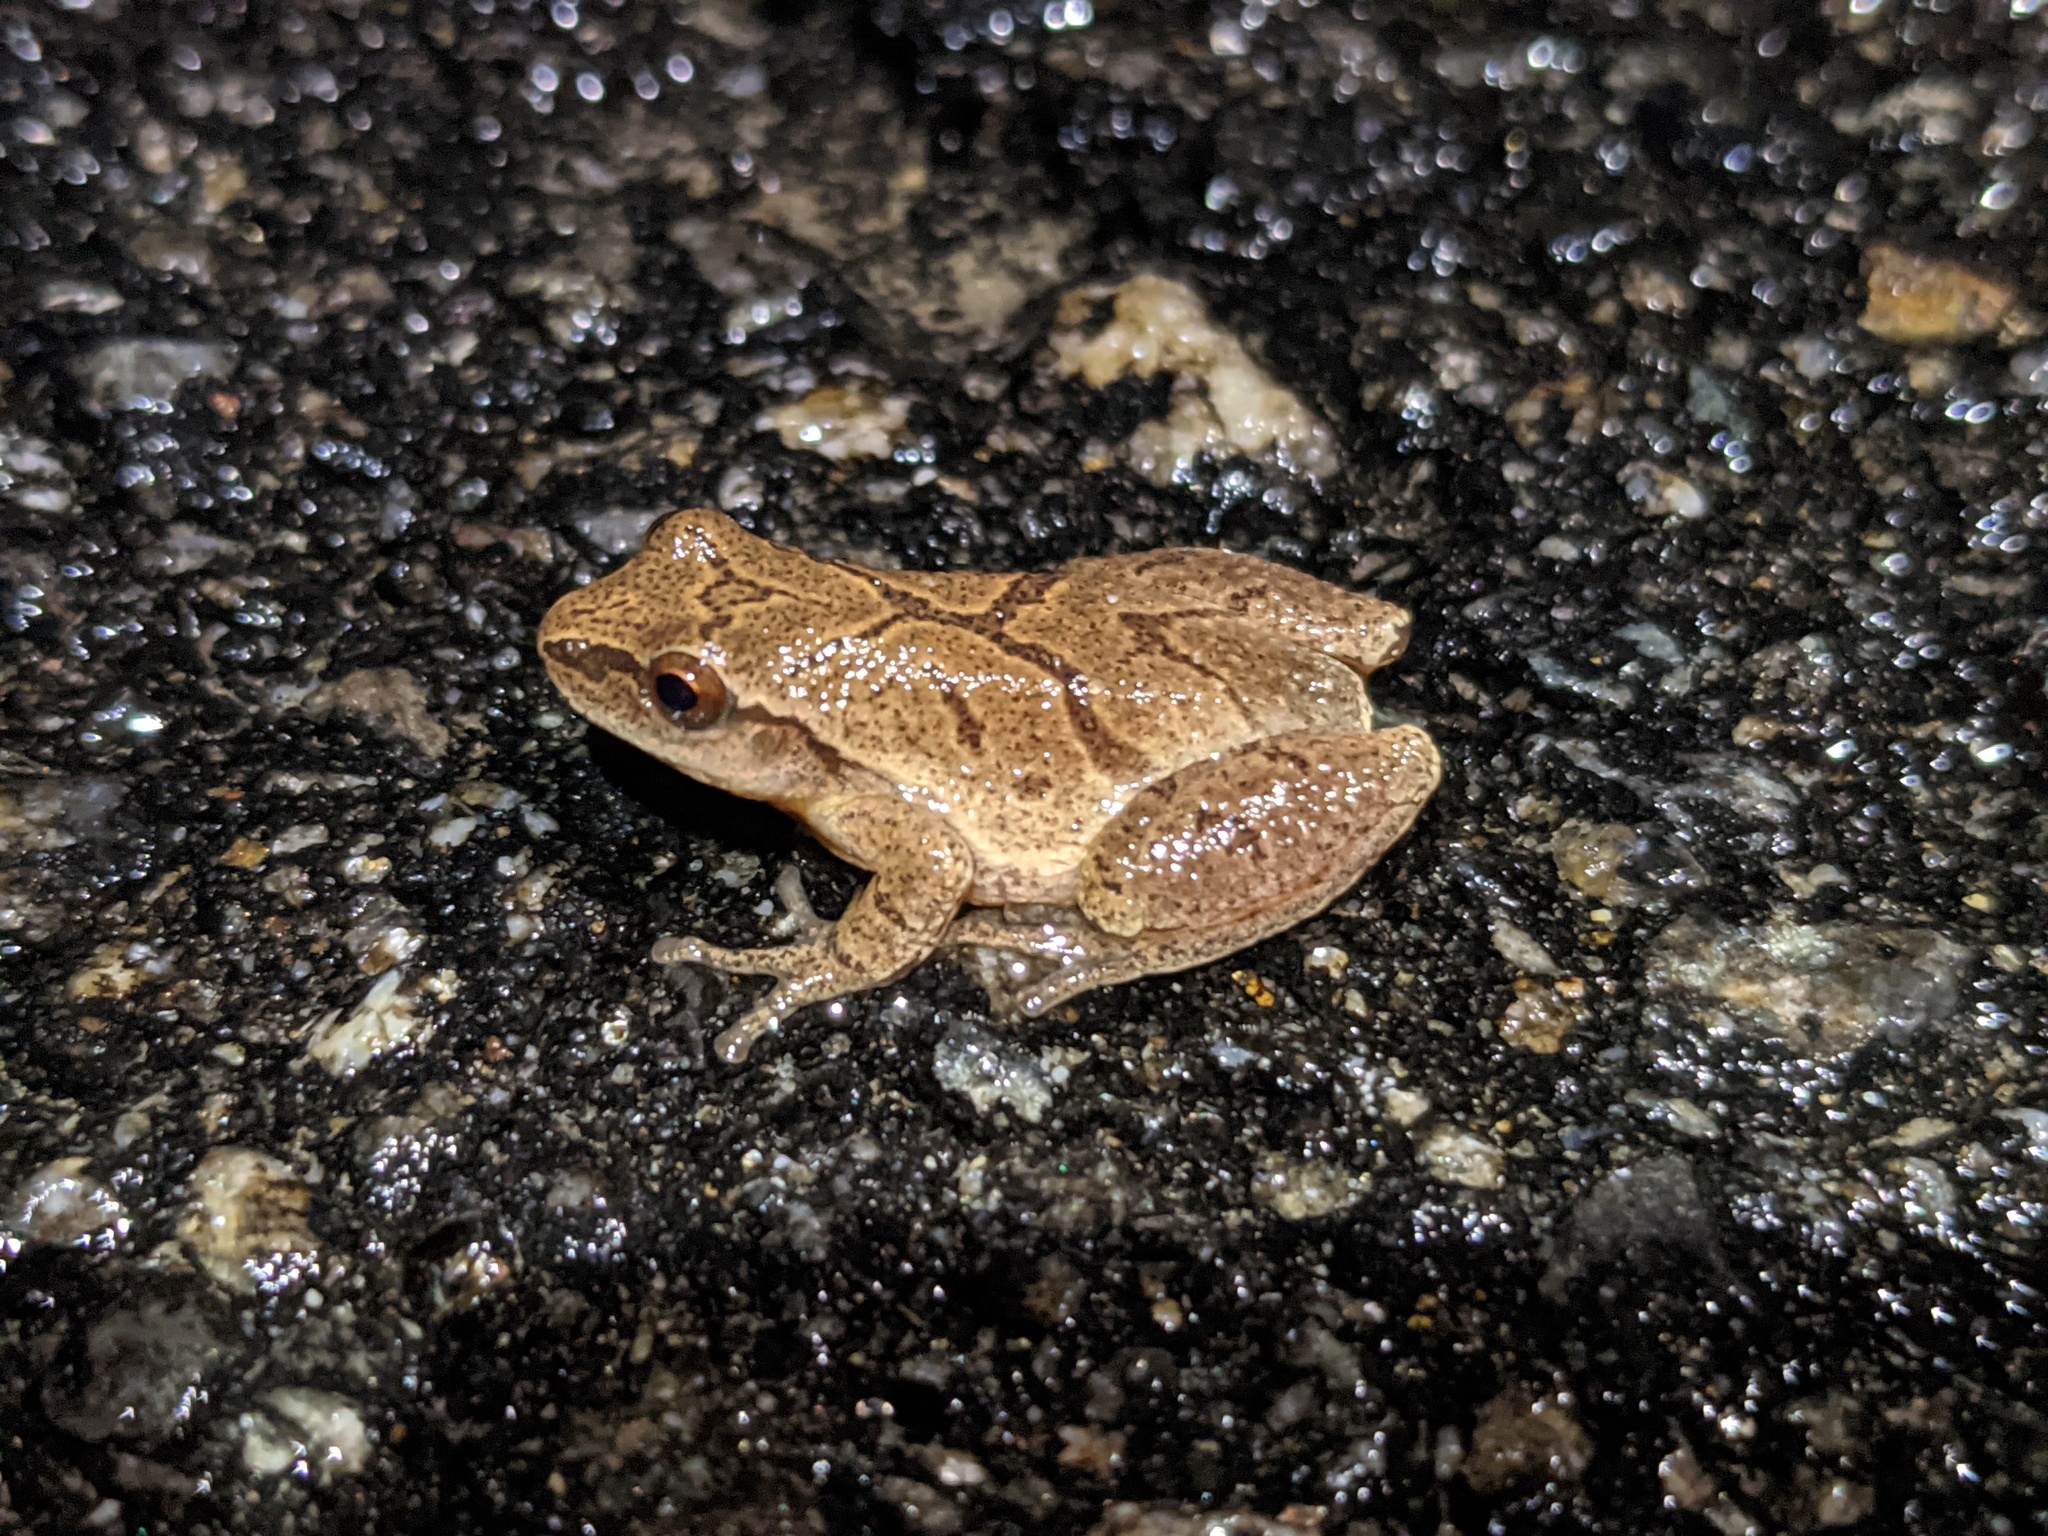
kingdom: Animalia
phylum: Chordata
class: Amphibia
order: Anura
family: Hylidae
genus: Pseudacris
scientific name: Pseudacris crucifer
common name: Spring peeper
